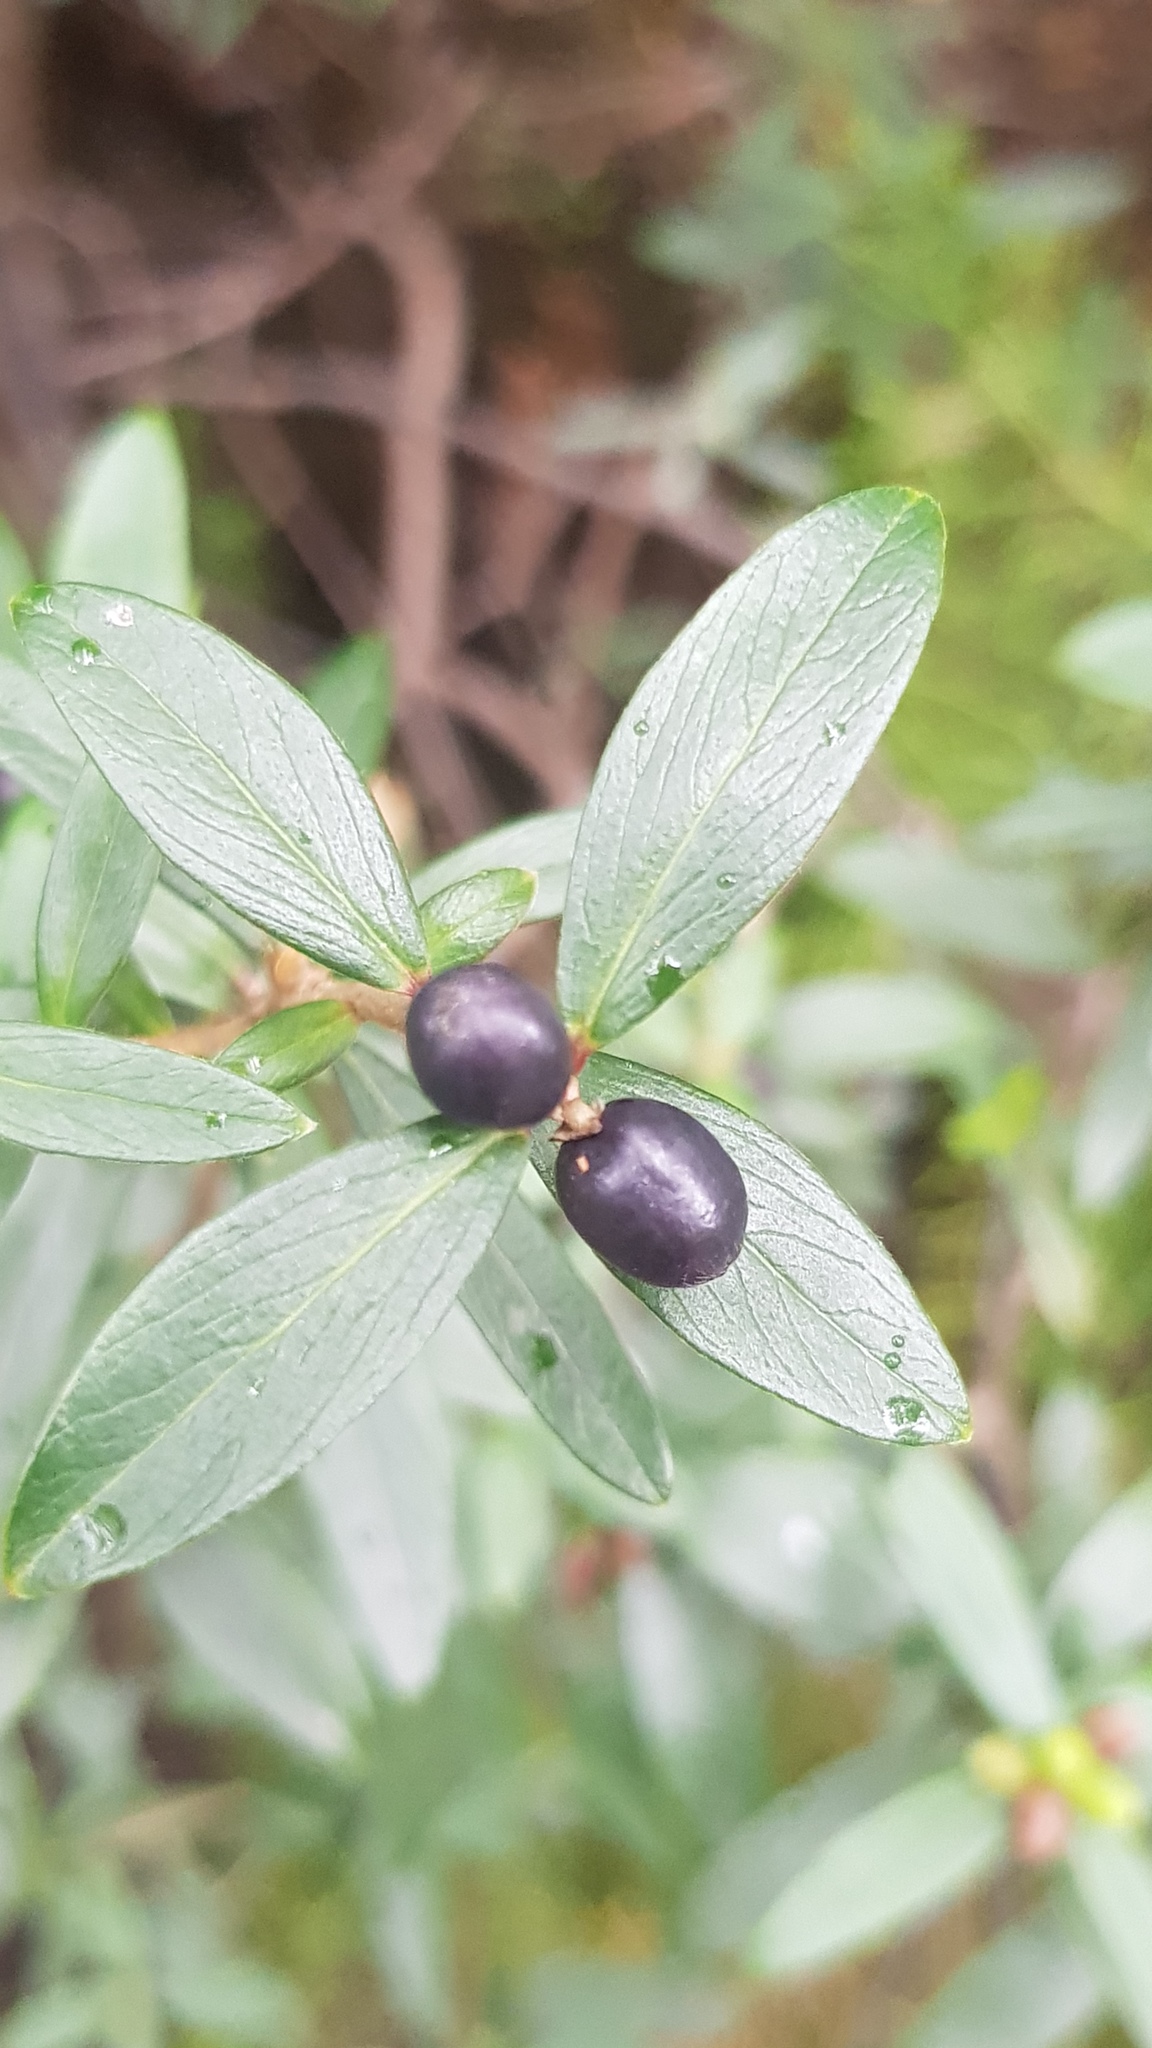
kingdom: Plantae
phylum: Tracheophyta
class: Magnoliopsida
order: Malvales
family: Thymelaeaceae
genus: Pimelea
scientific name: Pimelea drupacea
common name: Cherry riceflower
